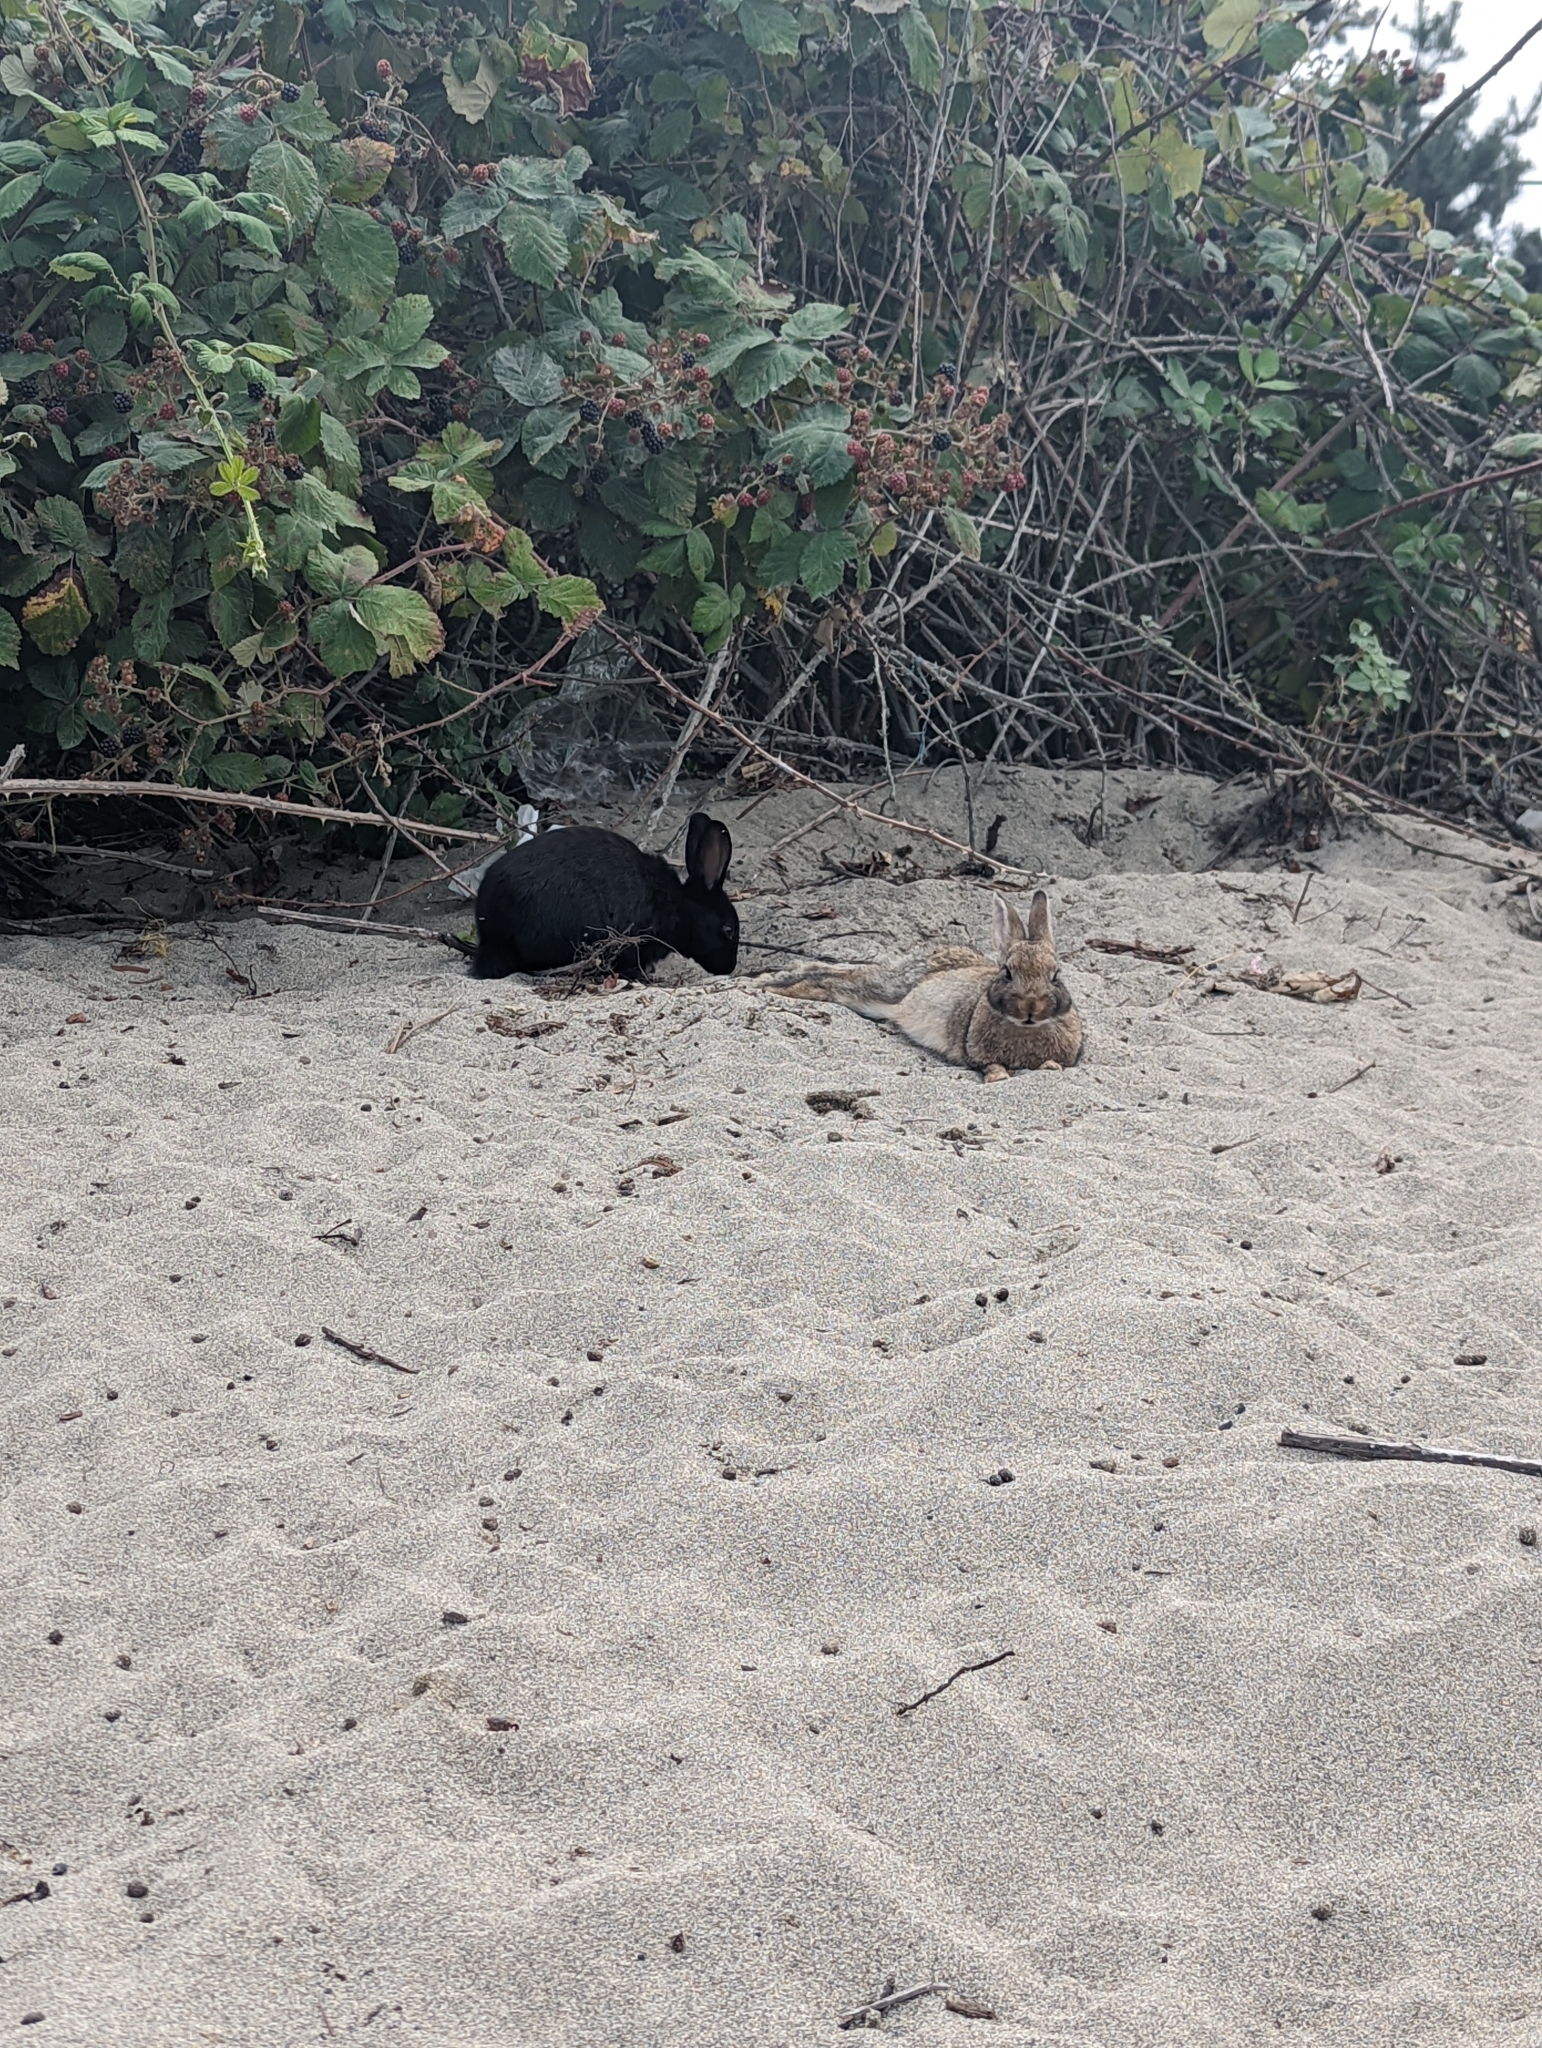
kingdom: Animalia
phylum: Chordata
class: Mammalia
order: Lagomorpha
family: Leporidae
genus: Oryctolagus
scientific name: Oryctolagus cuniculus
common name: European rabbit
